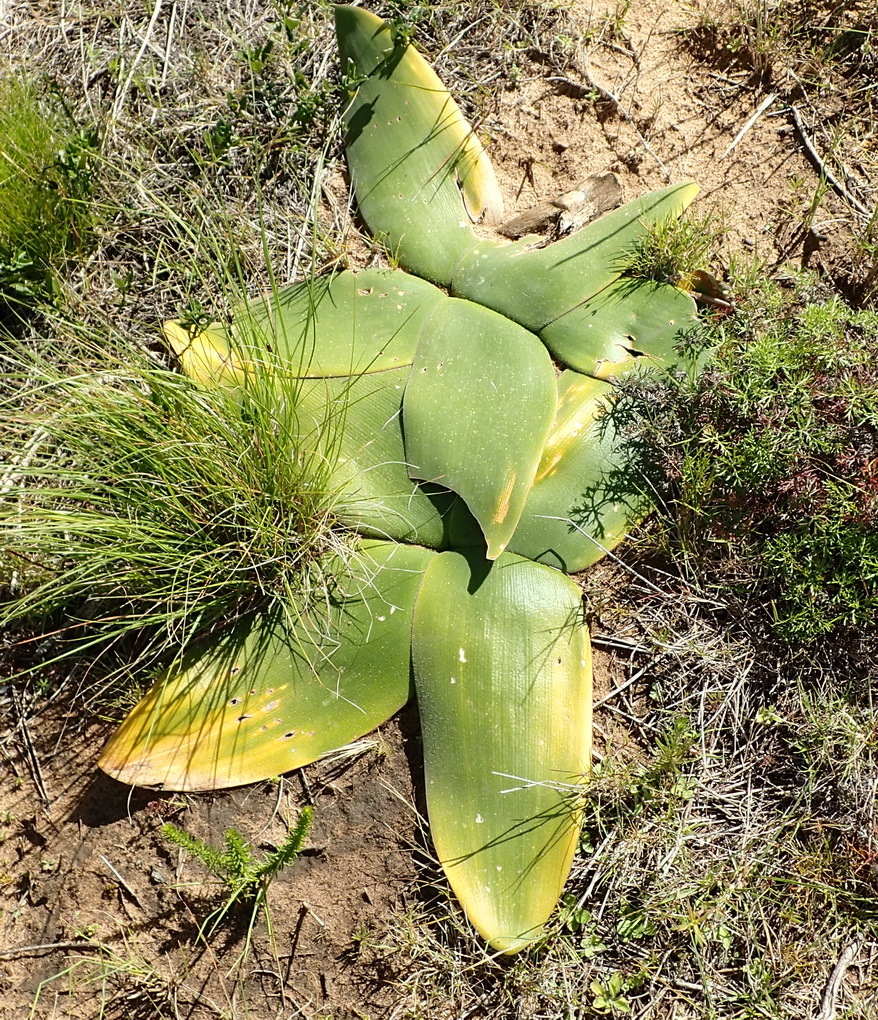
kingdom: Plantae
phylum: Tracheophyta
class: Liliopsida
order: Asparagales
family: Amaryllidaceae
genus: Brunsvigia
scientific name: Brunsvigia orientalis
